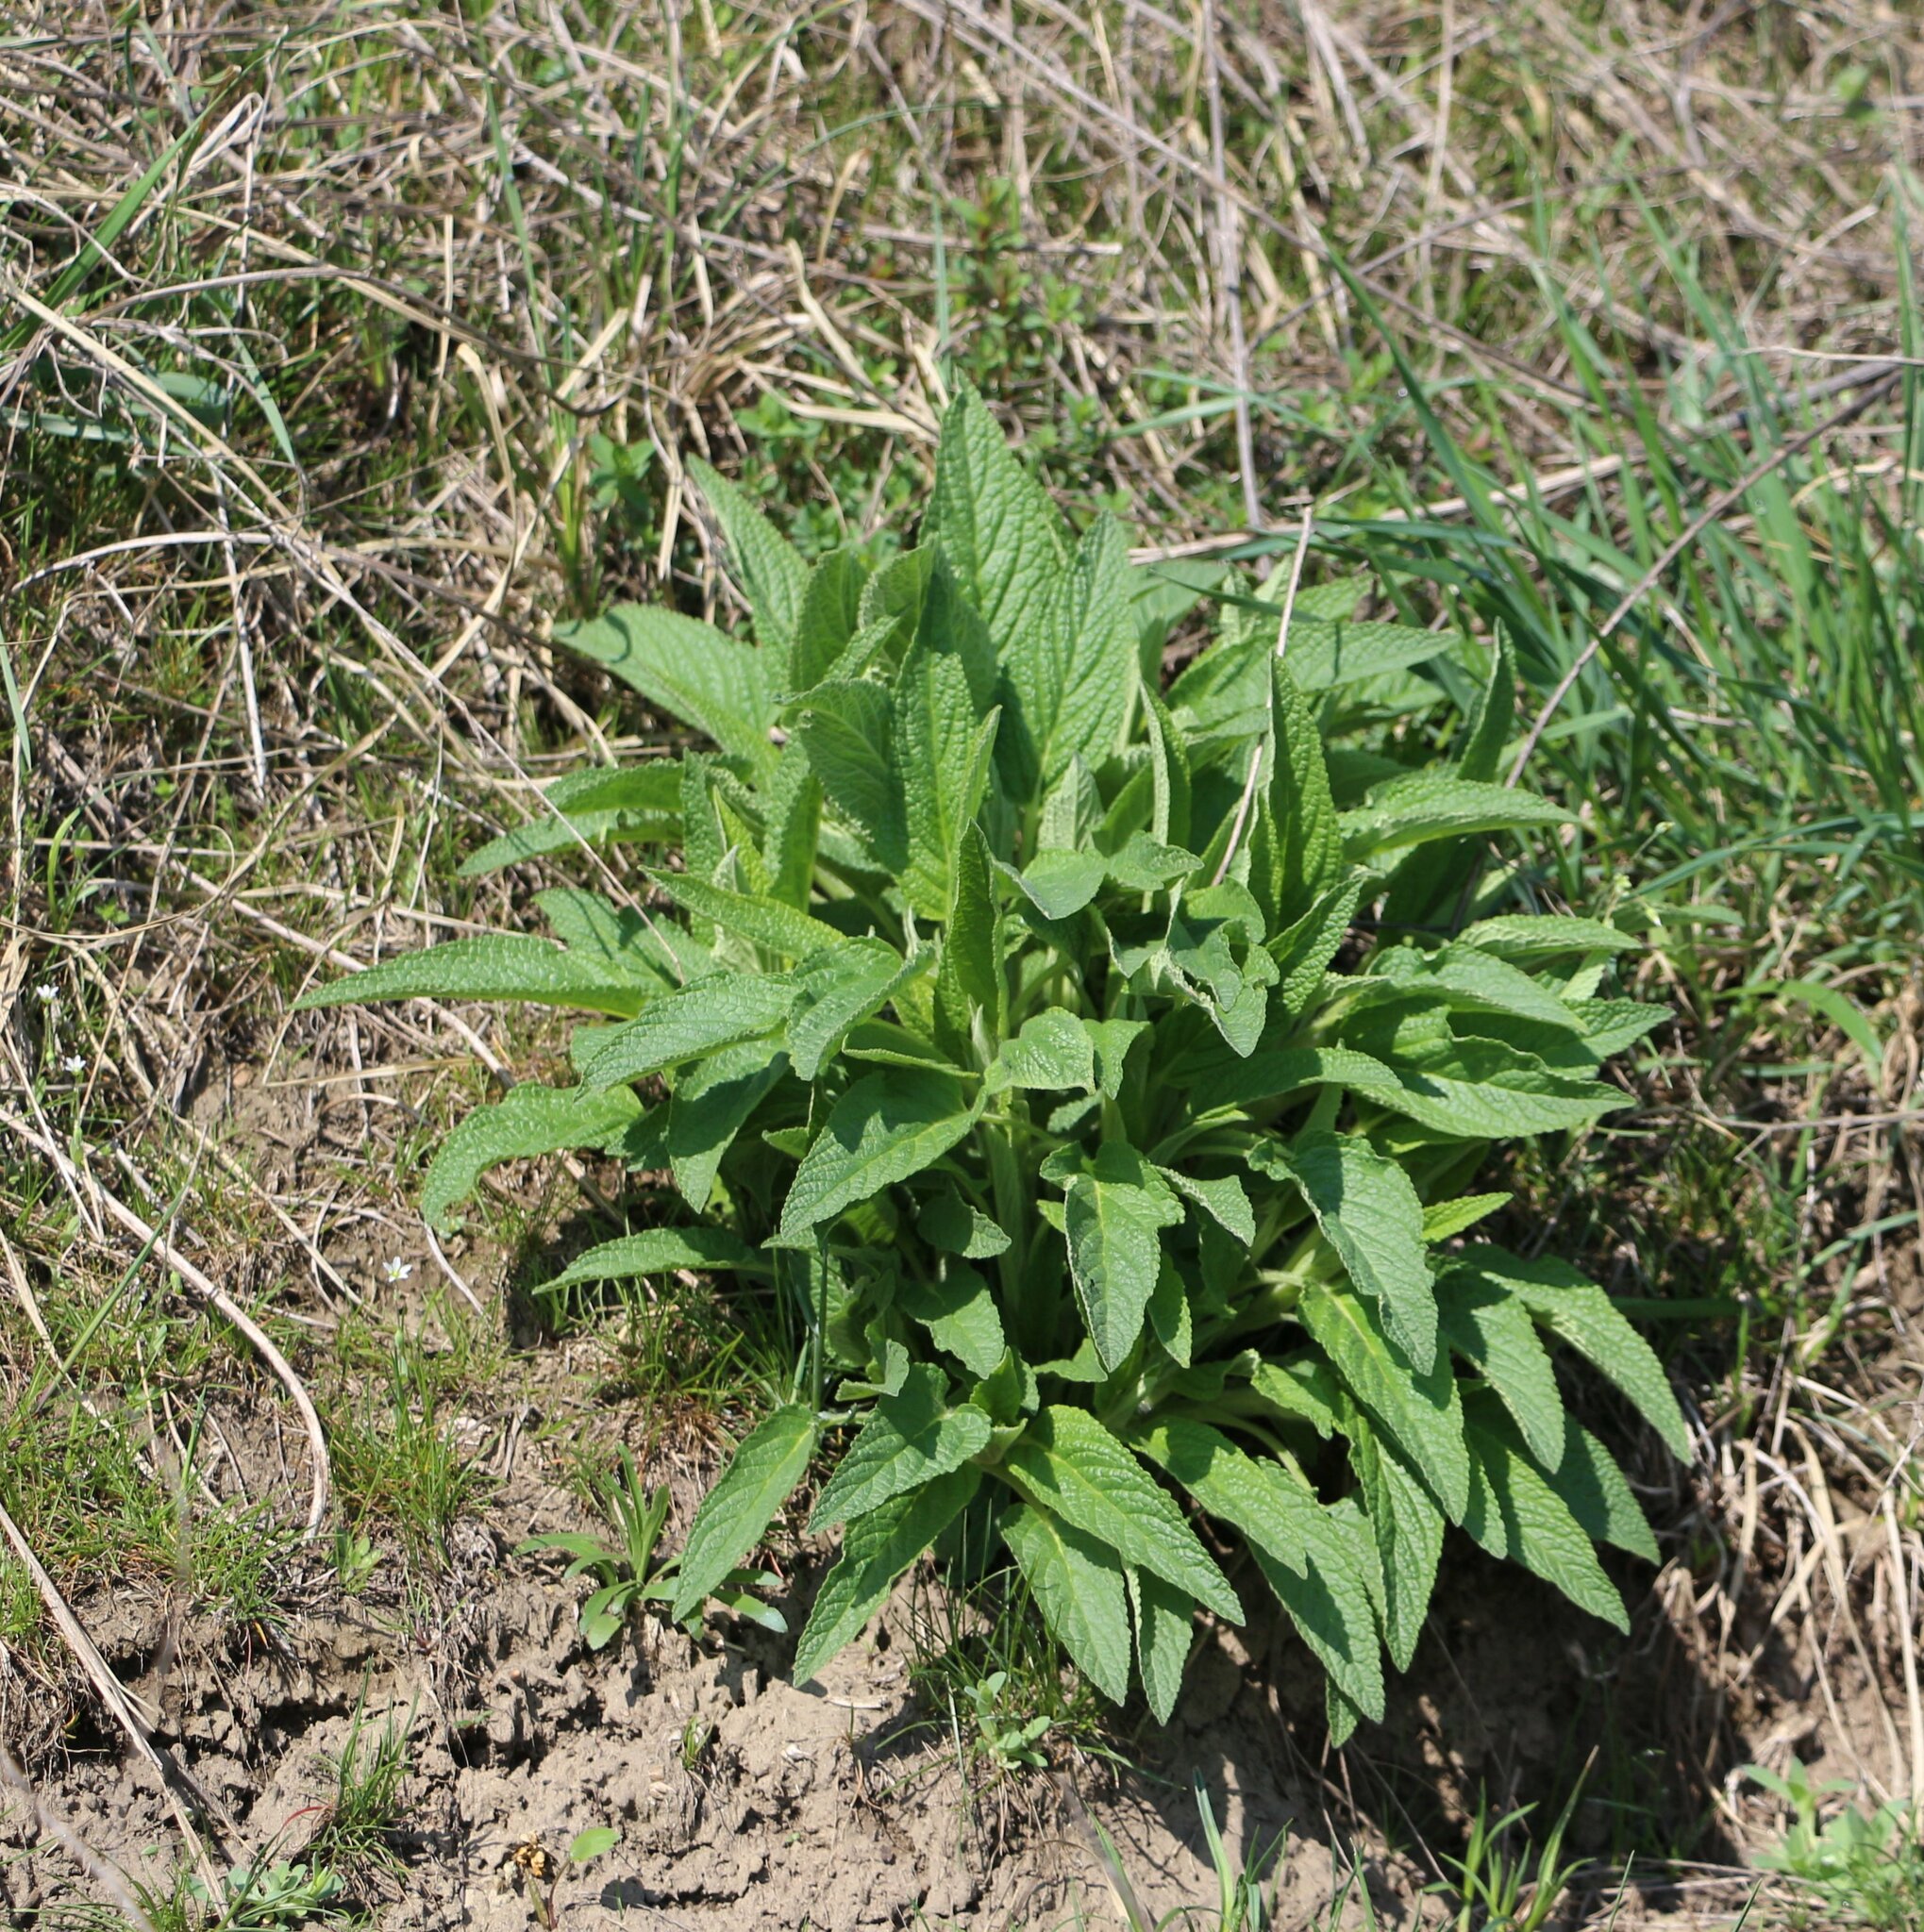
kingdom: Plantae
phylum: Tracheophyta
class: Magnoliopsida
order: Lamiales
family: Lamiaceae
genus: Phlomis
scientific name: Phlomis herba-venti
